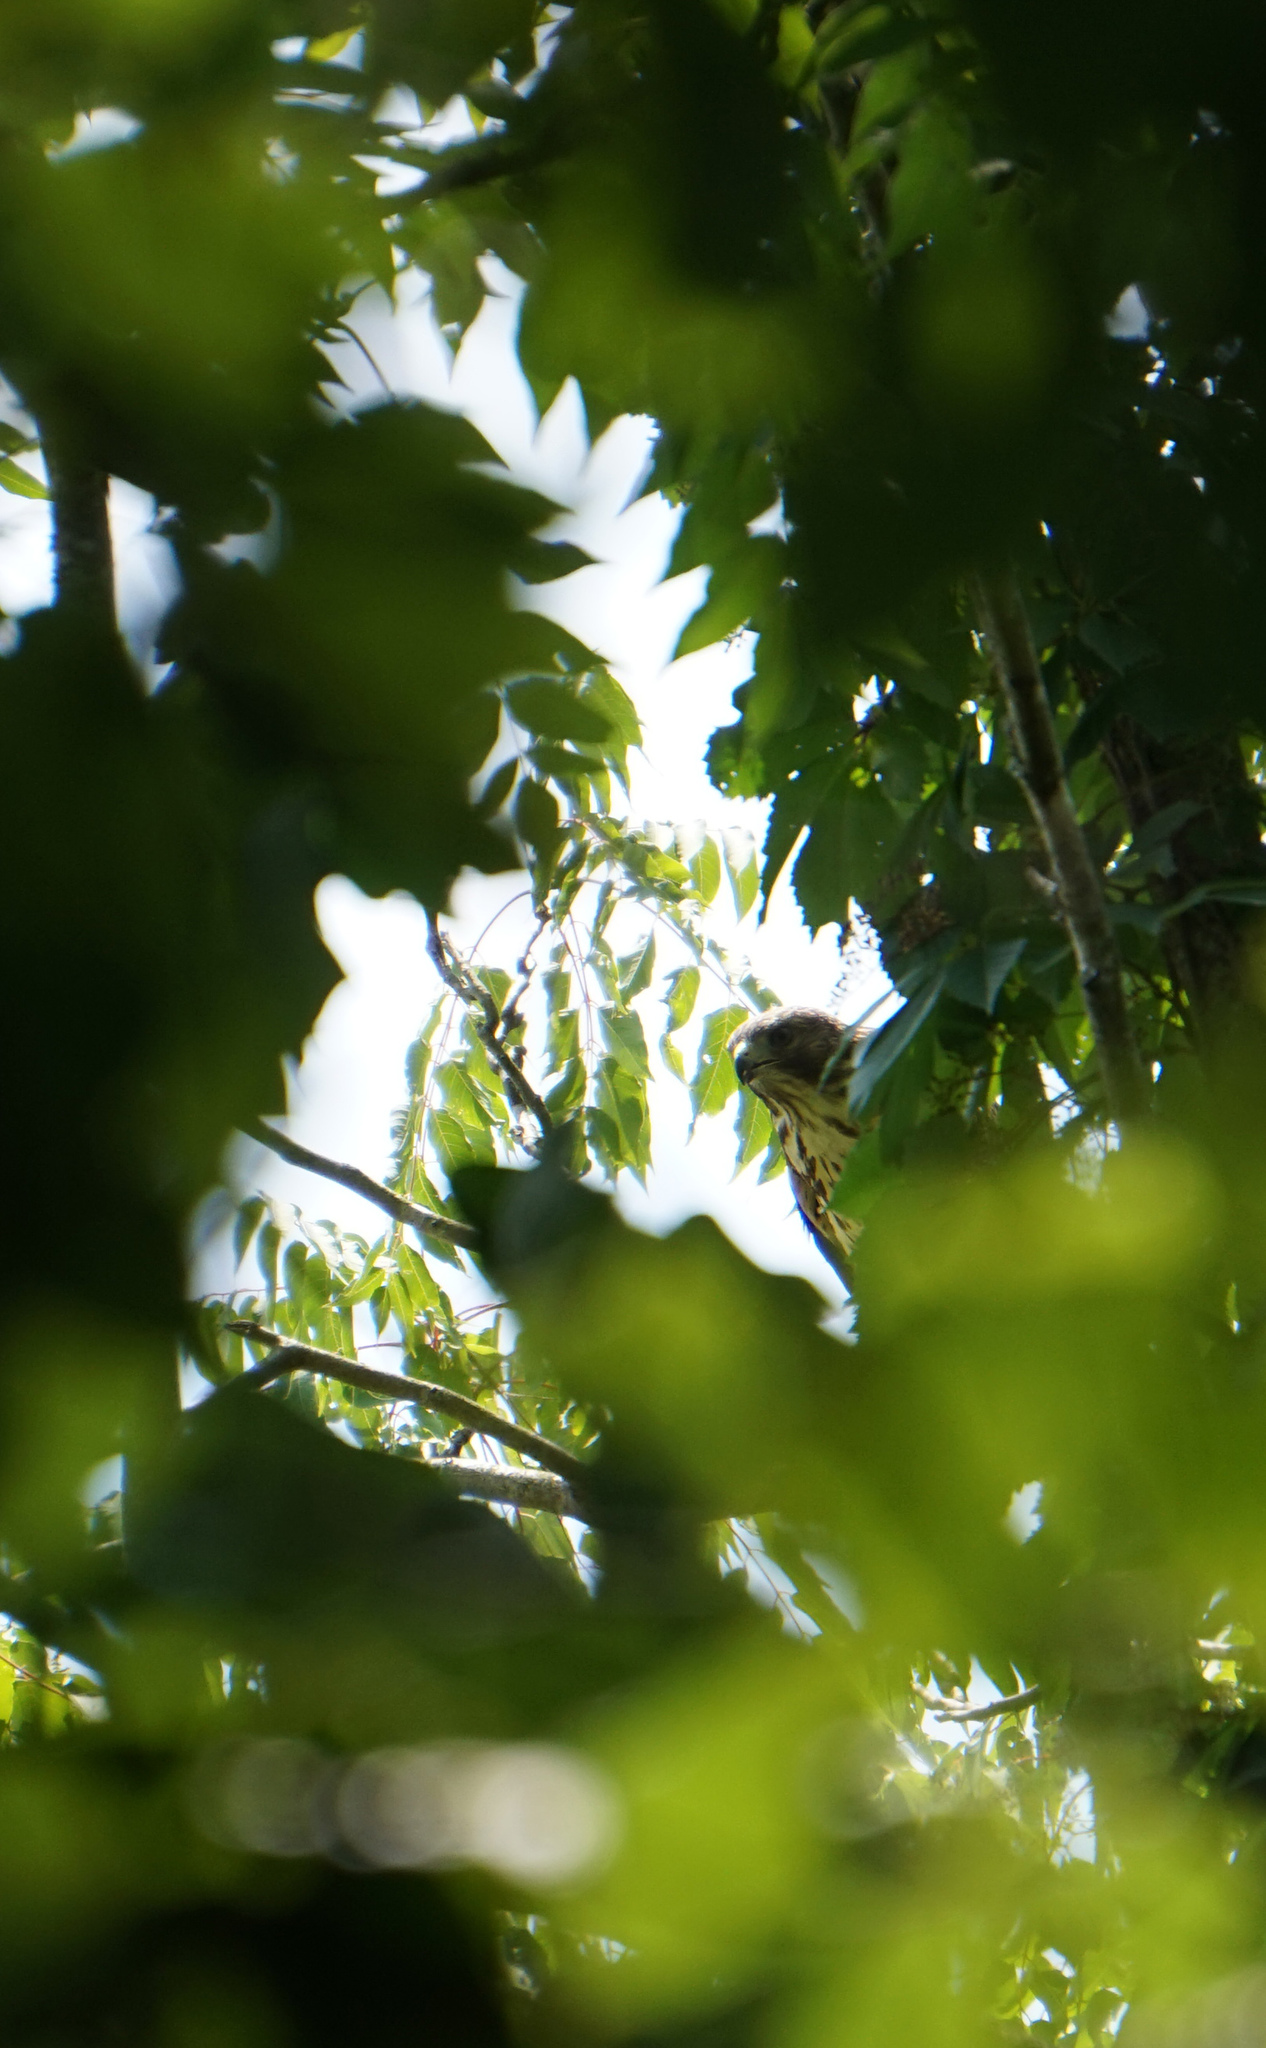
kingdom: Animalia
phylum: Chordata
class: Aves
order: Accipitriformes
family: Accipitridae
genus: Buteo
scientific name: Buteo lineatus
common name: Red-shouldered hawk
